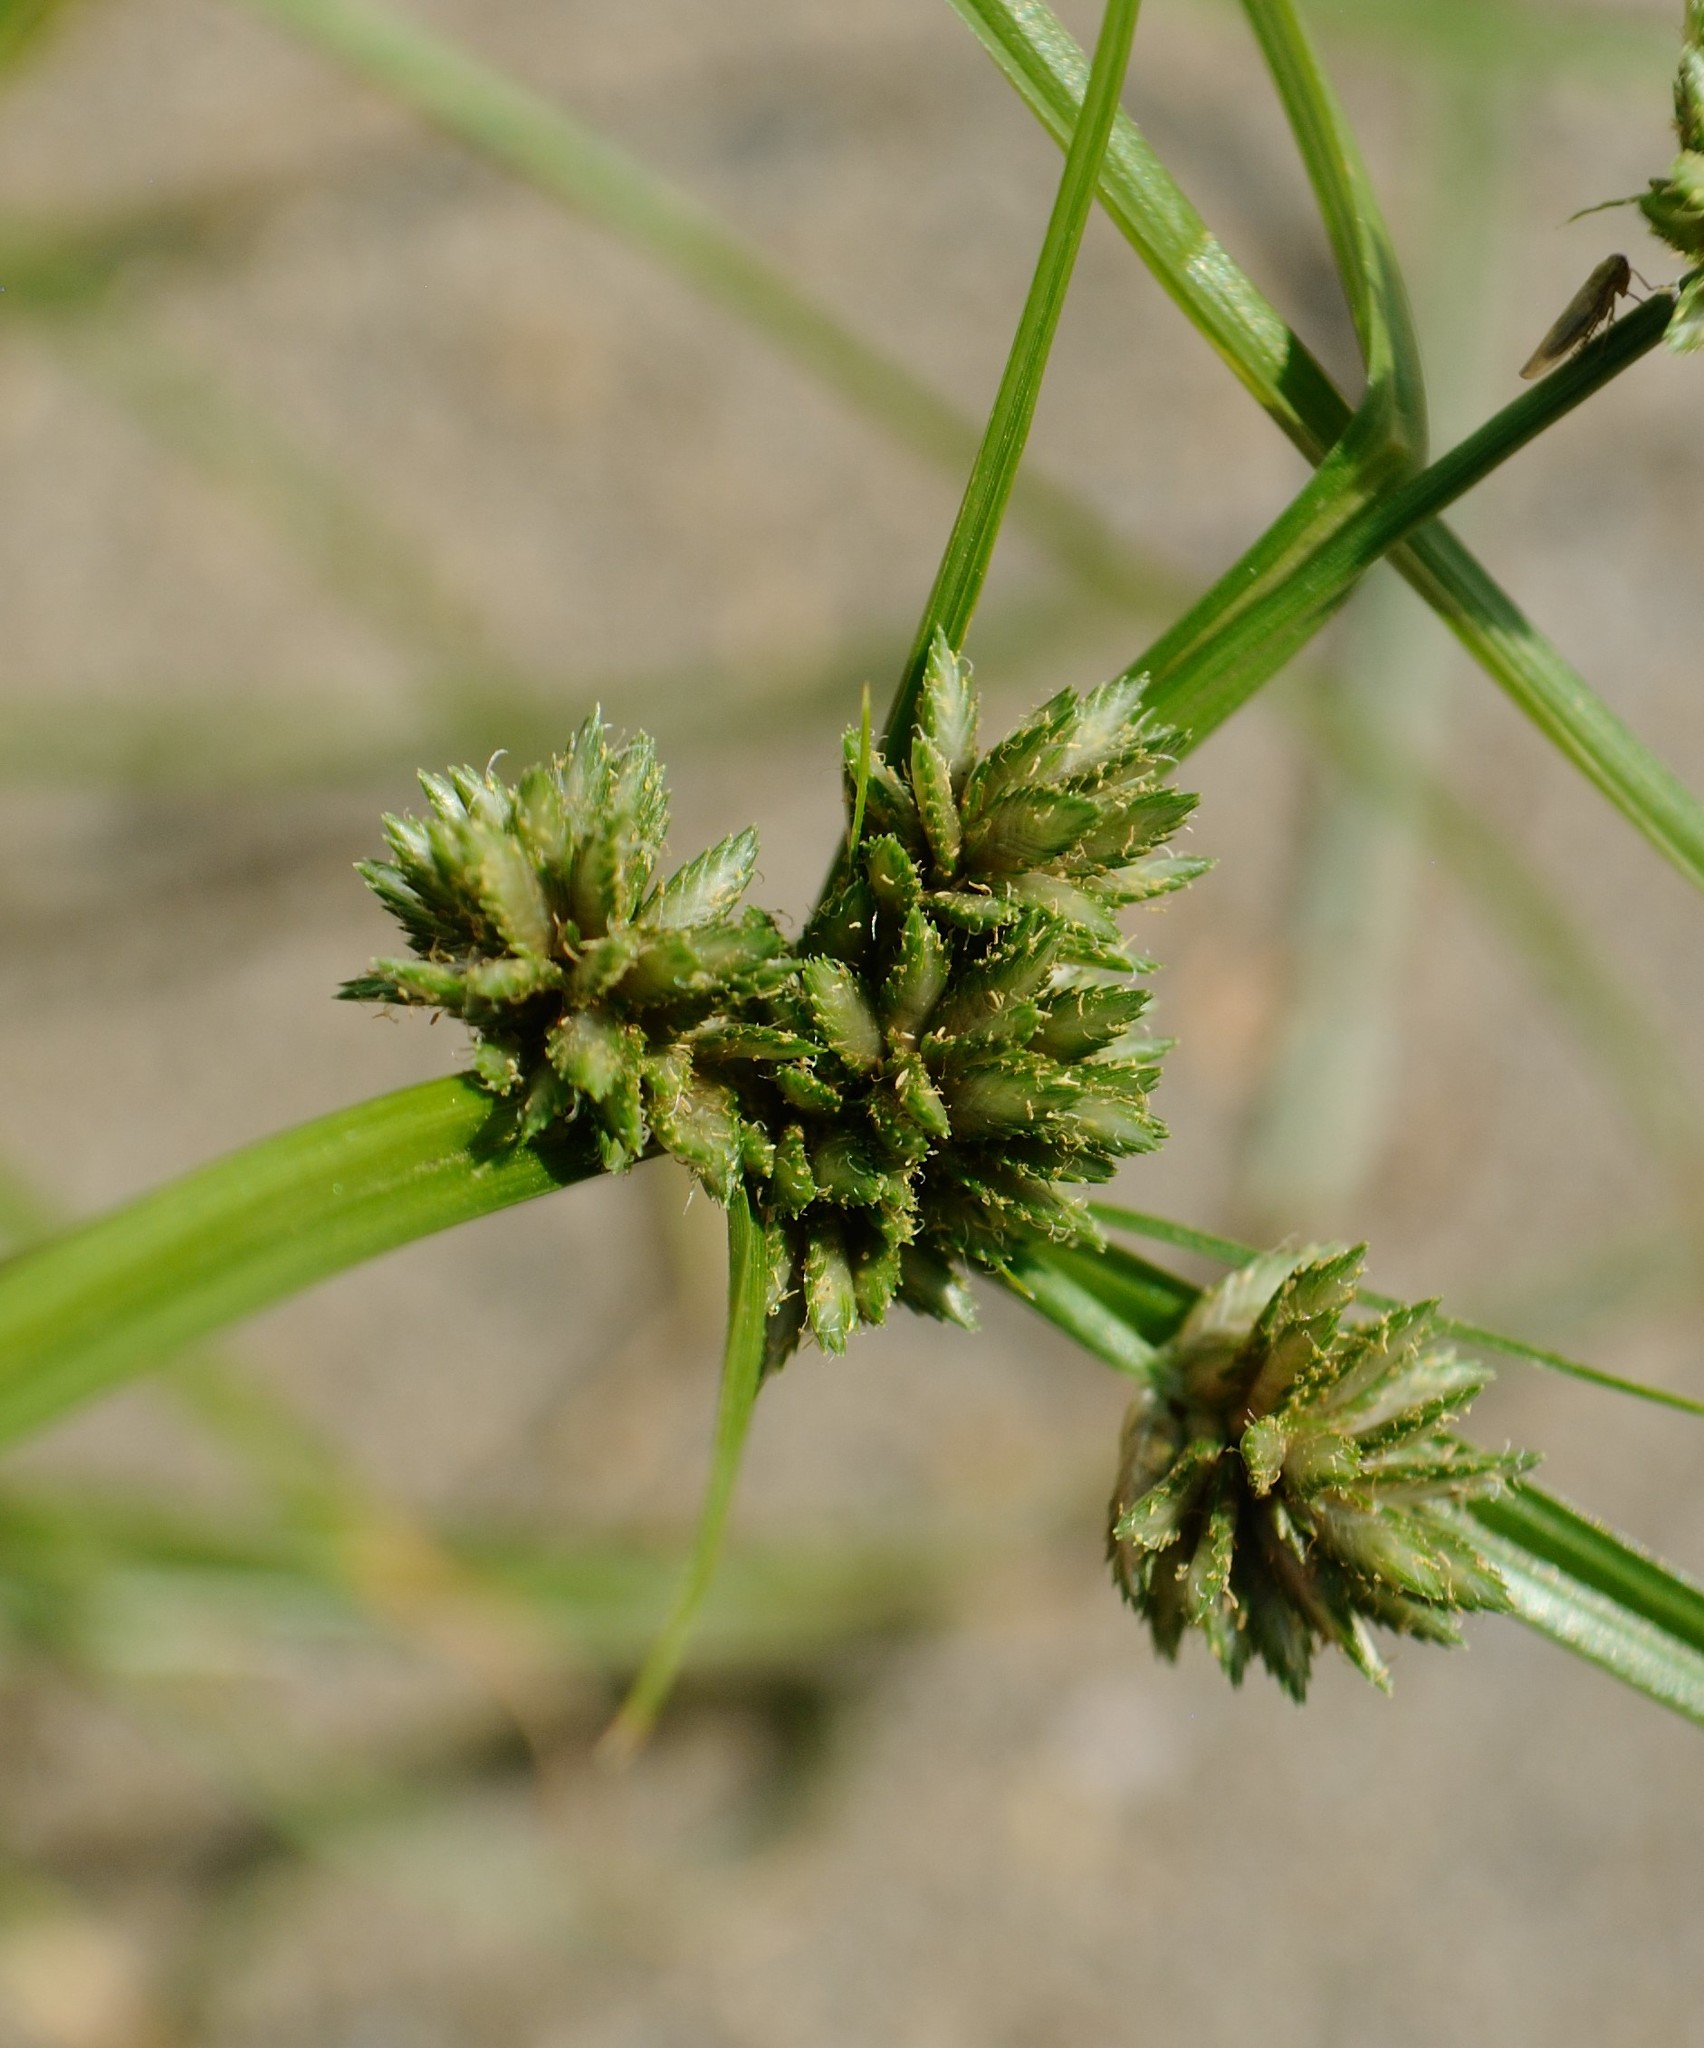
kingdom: Plantae
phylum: Tracheophyta
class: Liliopsida
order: Poales
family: Cyperaceae
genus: Cyperus
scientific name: Cyperus nipponicus
